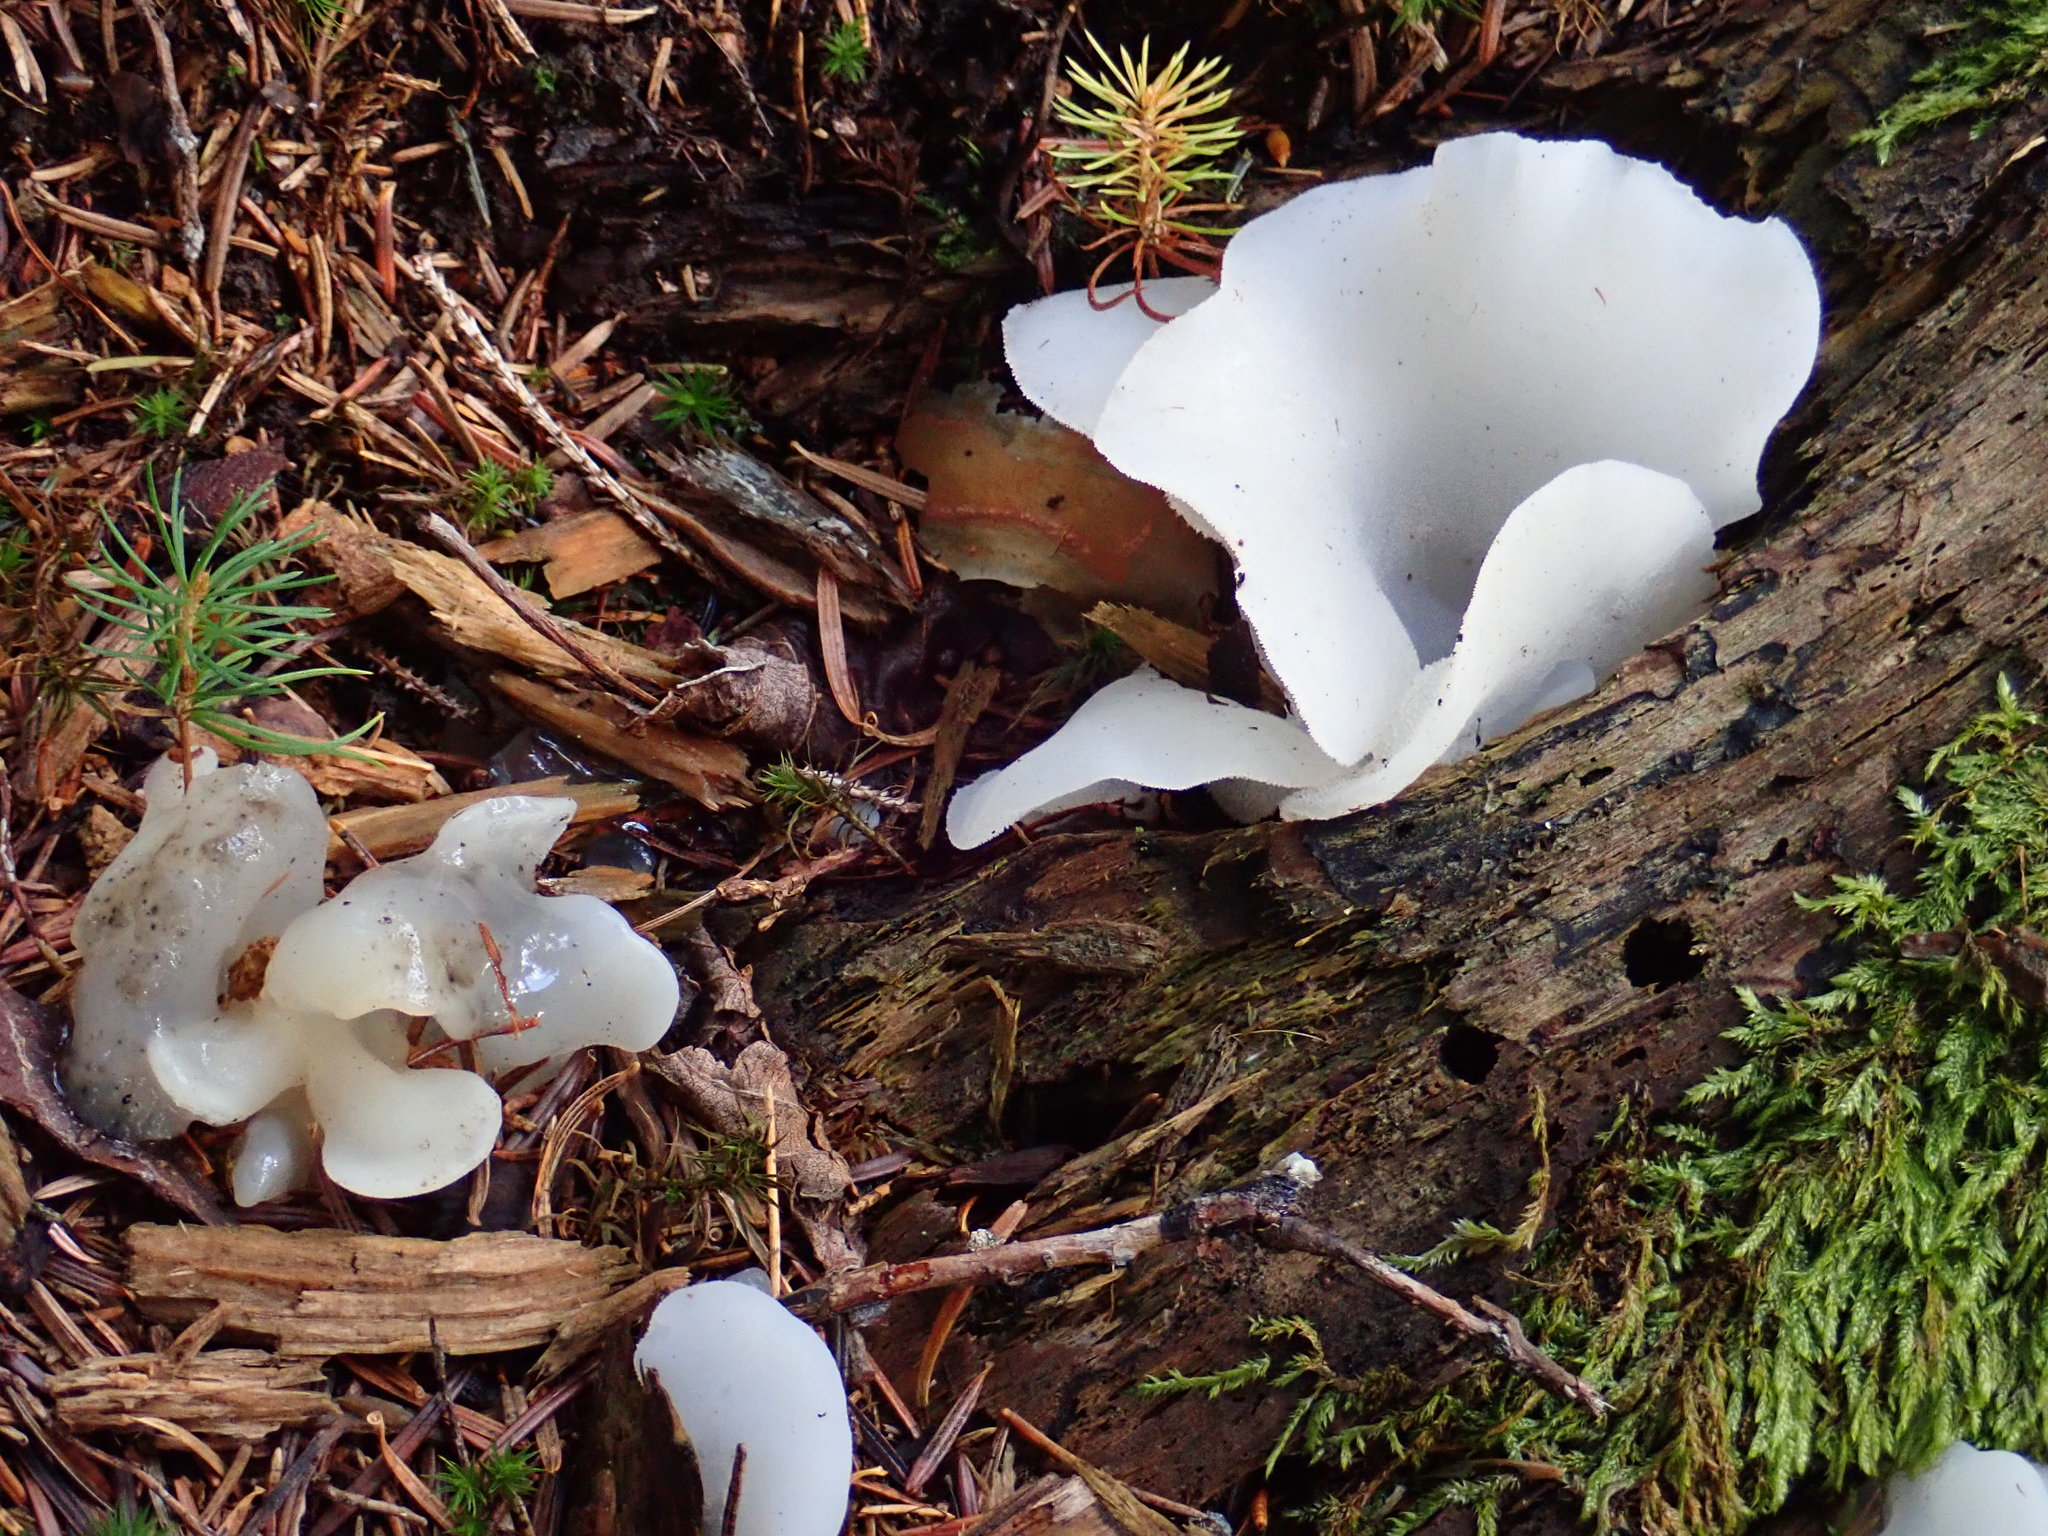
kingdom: Fungi
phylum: Basidiomycota
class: Agaricomycetes
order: Auriculariales
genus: Pseudohydnum
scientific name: Pseudohydnum gelatinosum
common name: Jelly tongue
